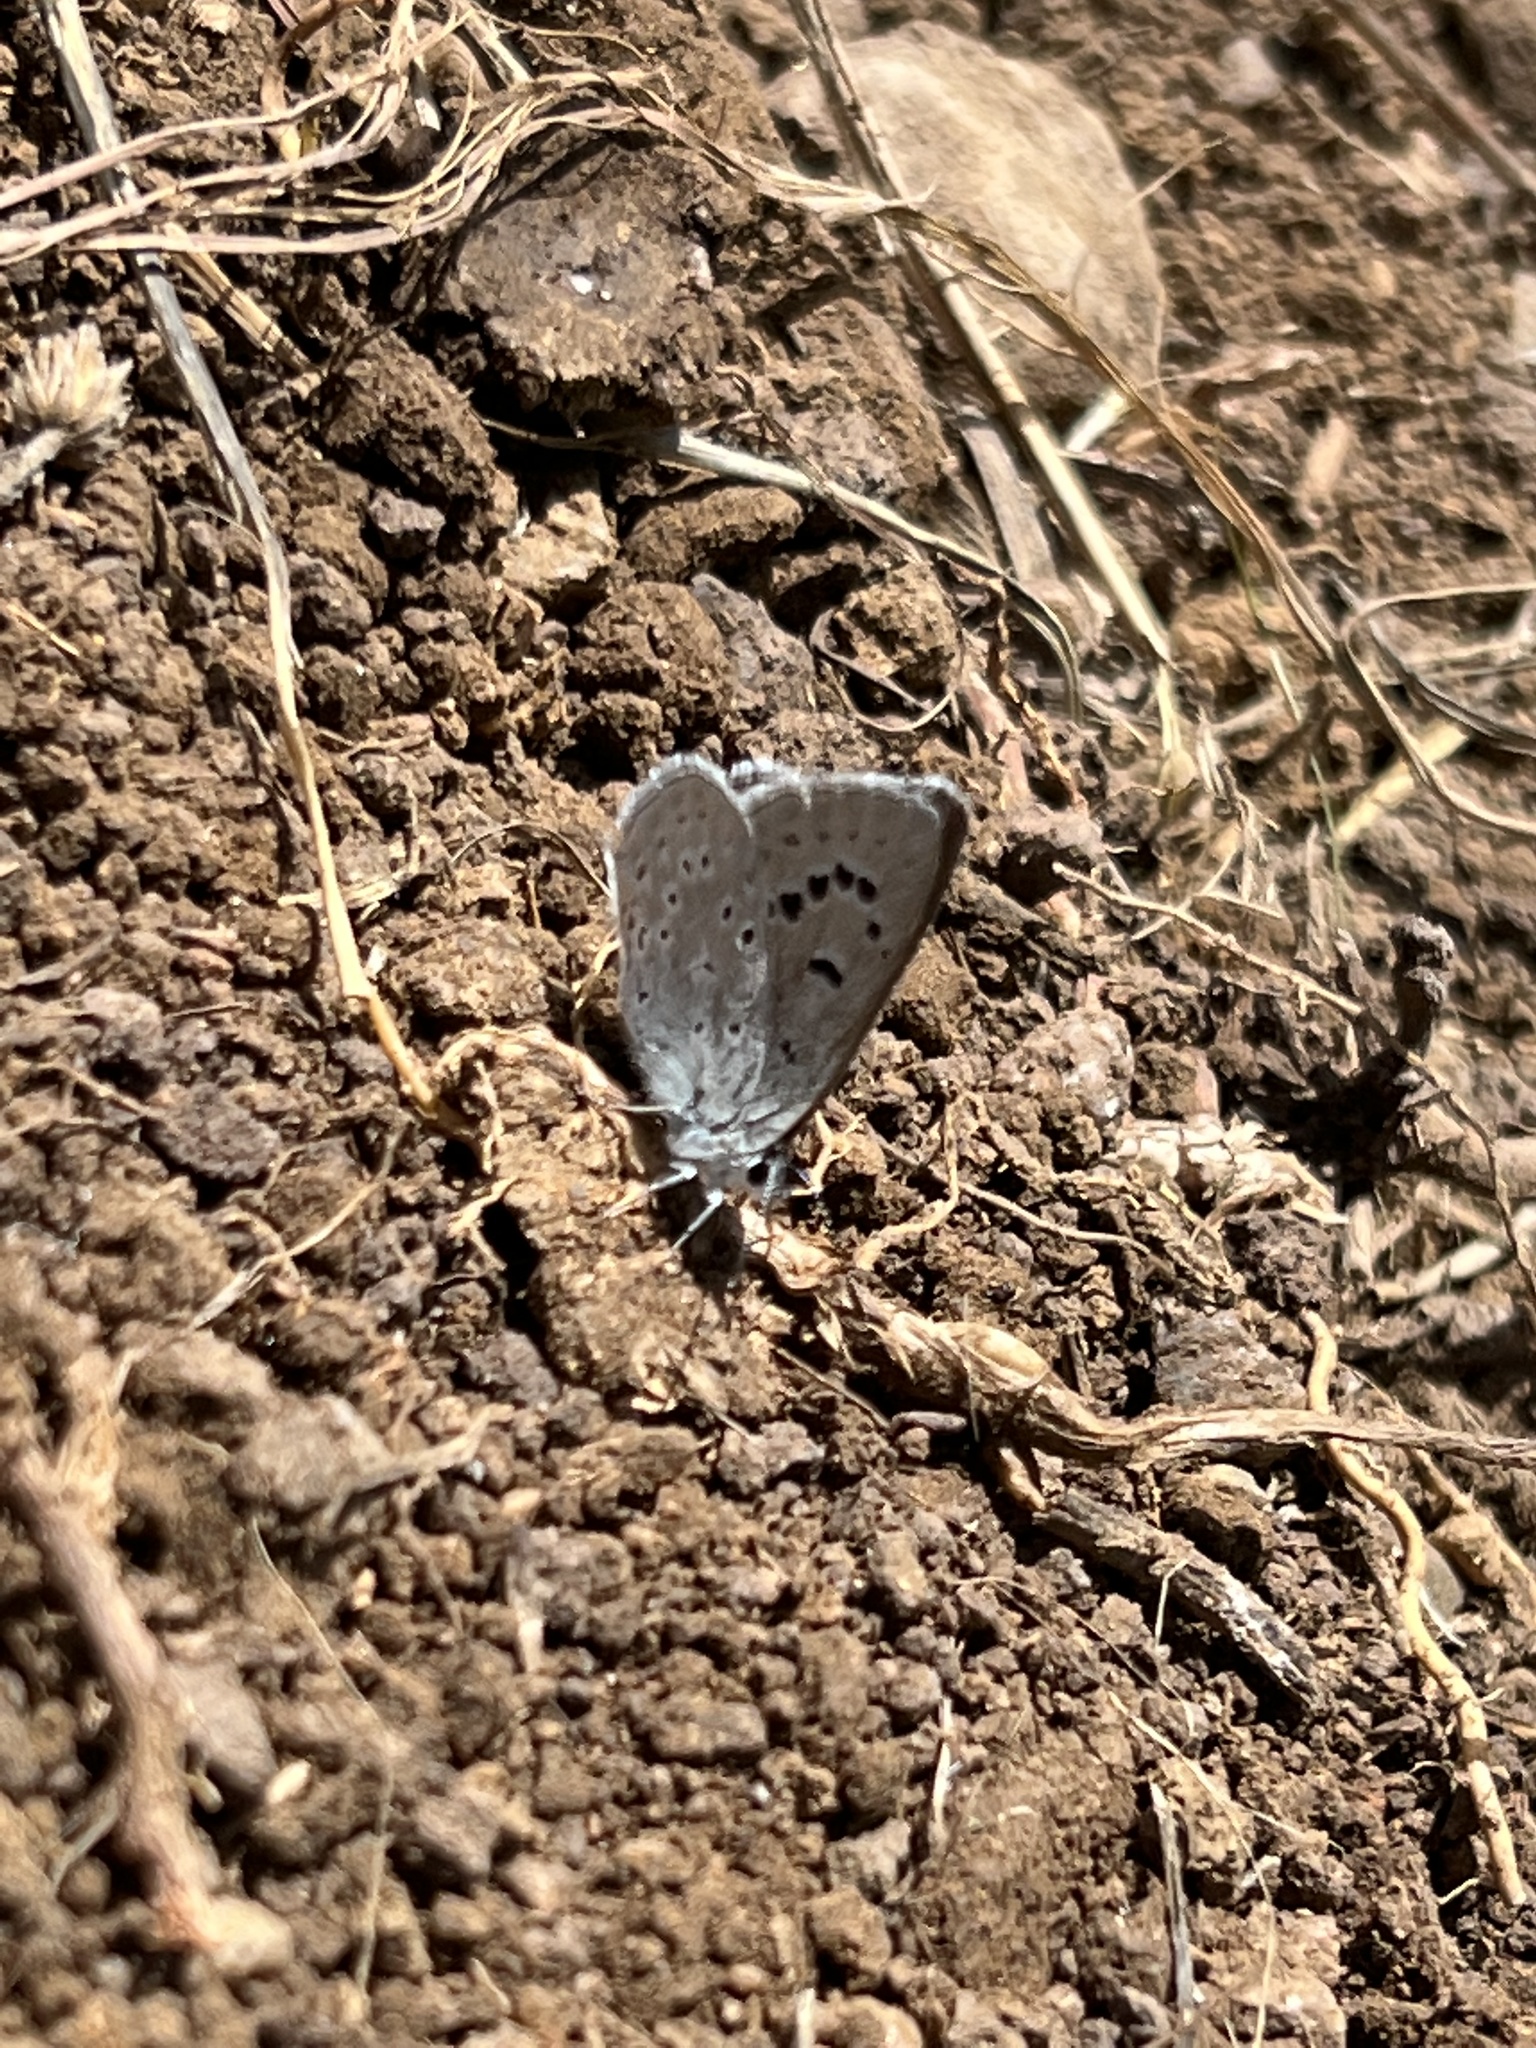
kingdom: Animalia
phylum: Arthropoda
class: Insecta
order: Lepidoptera
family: Lycaenidae
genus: Icaricia
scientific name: Icaricia icarioides
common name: Boisduval's blue
